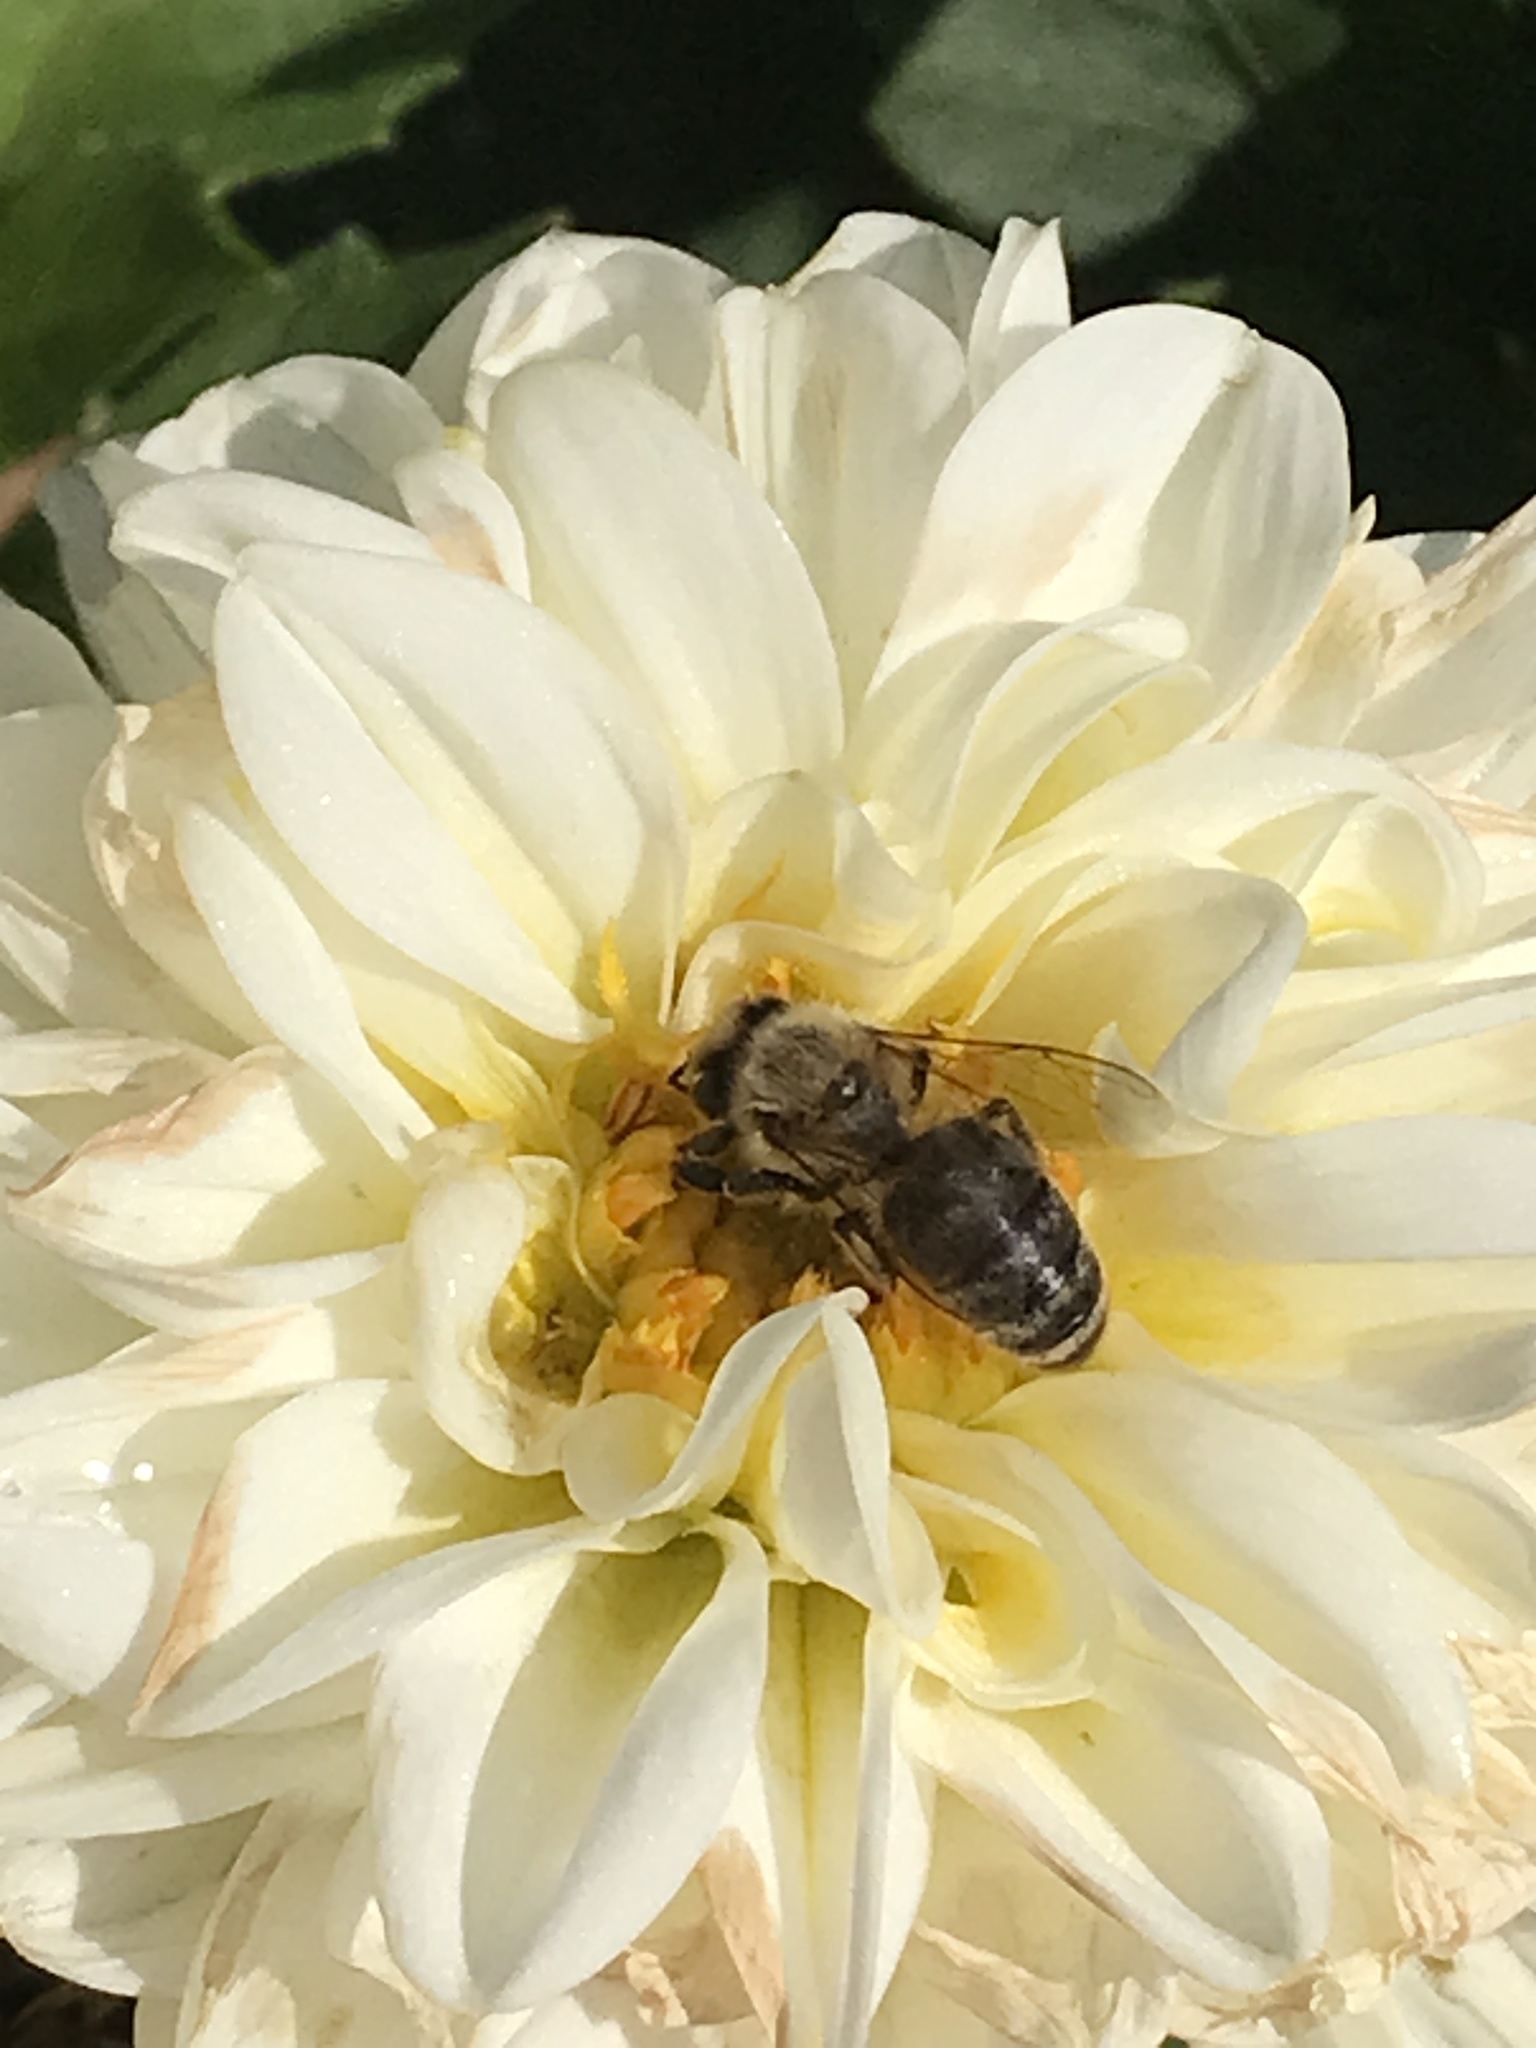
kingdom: Animalia
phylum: Arthropoda
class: Insecta
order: Hymenoptera
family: Apidae
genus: Apis
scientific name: Apis mellifera
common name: Honey bee
